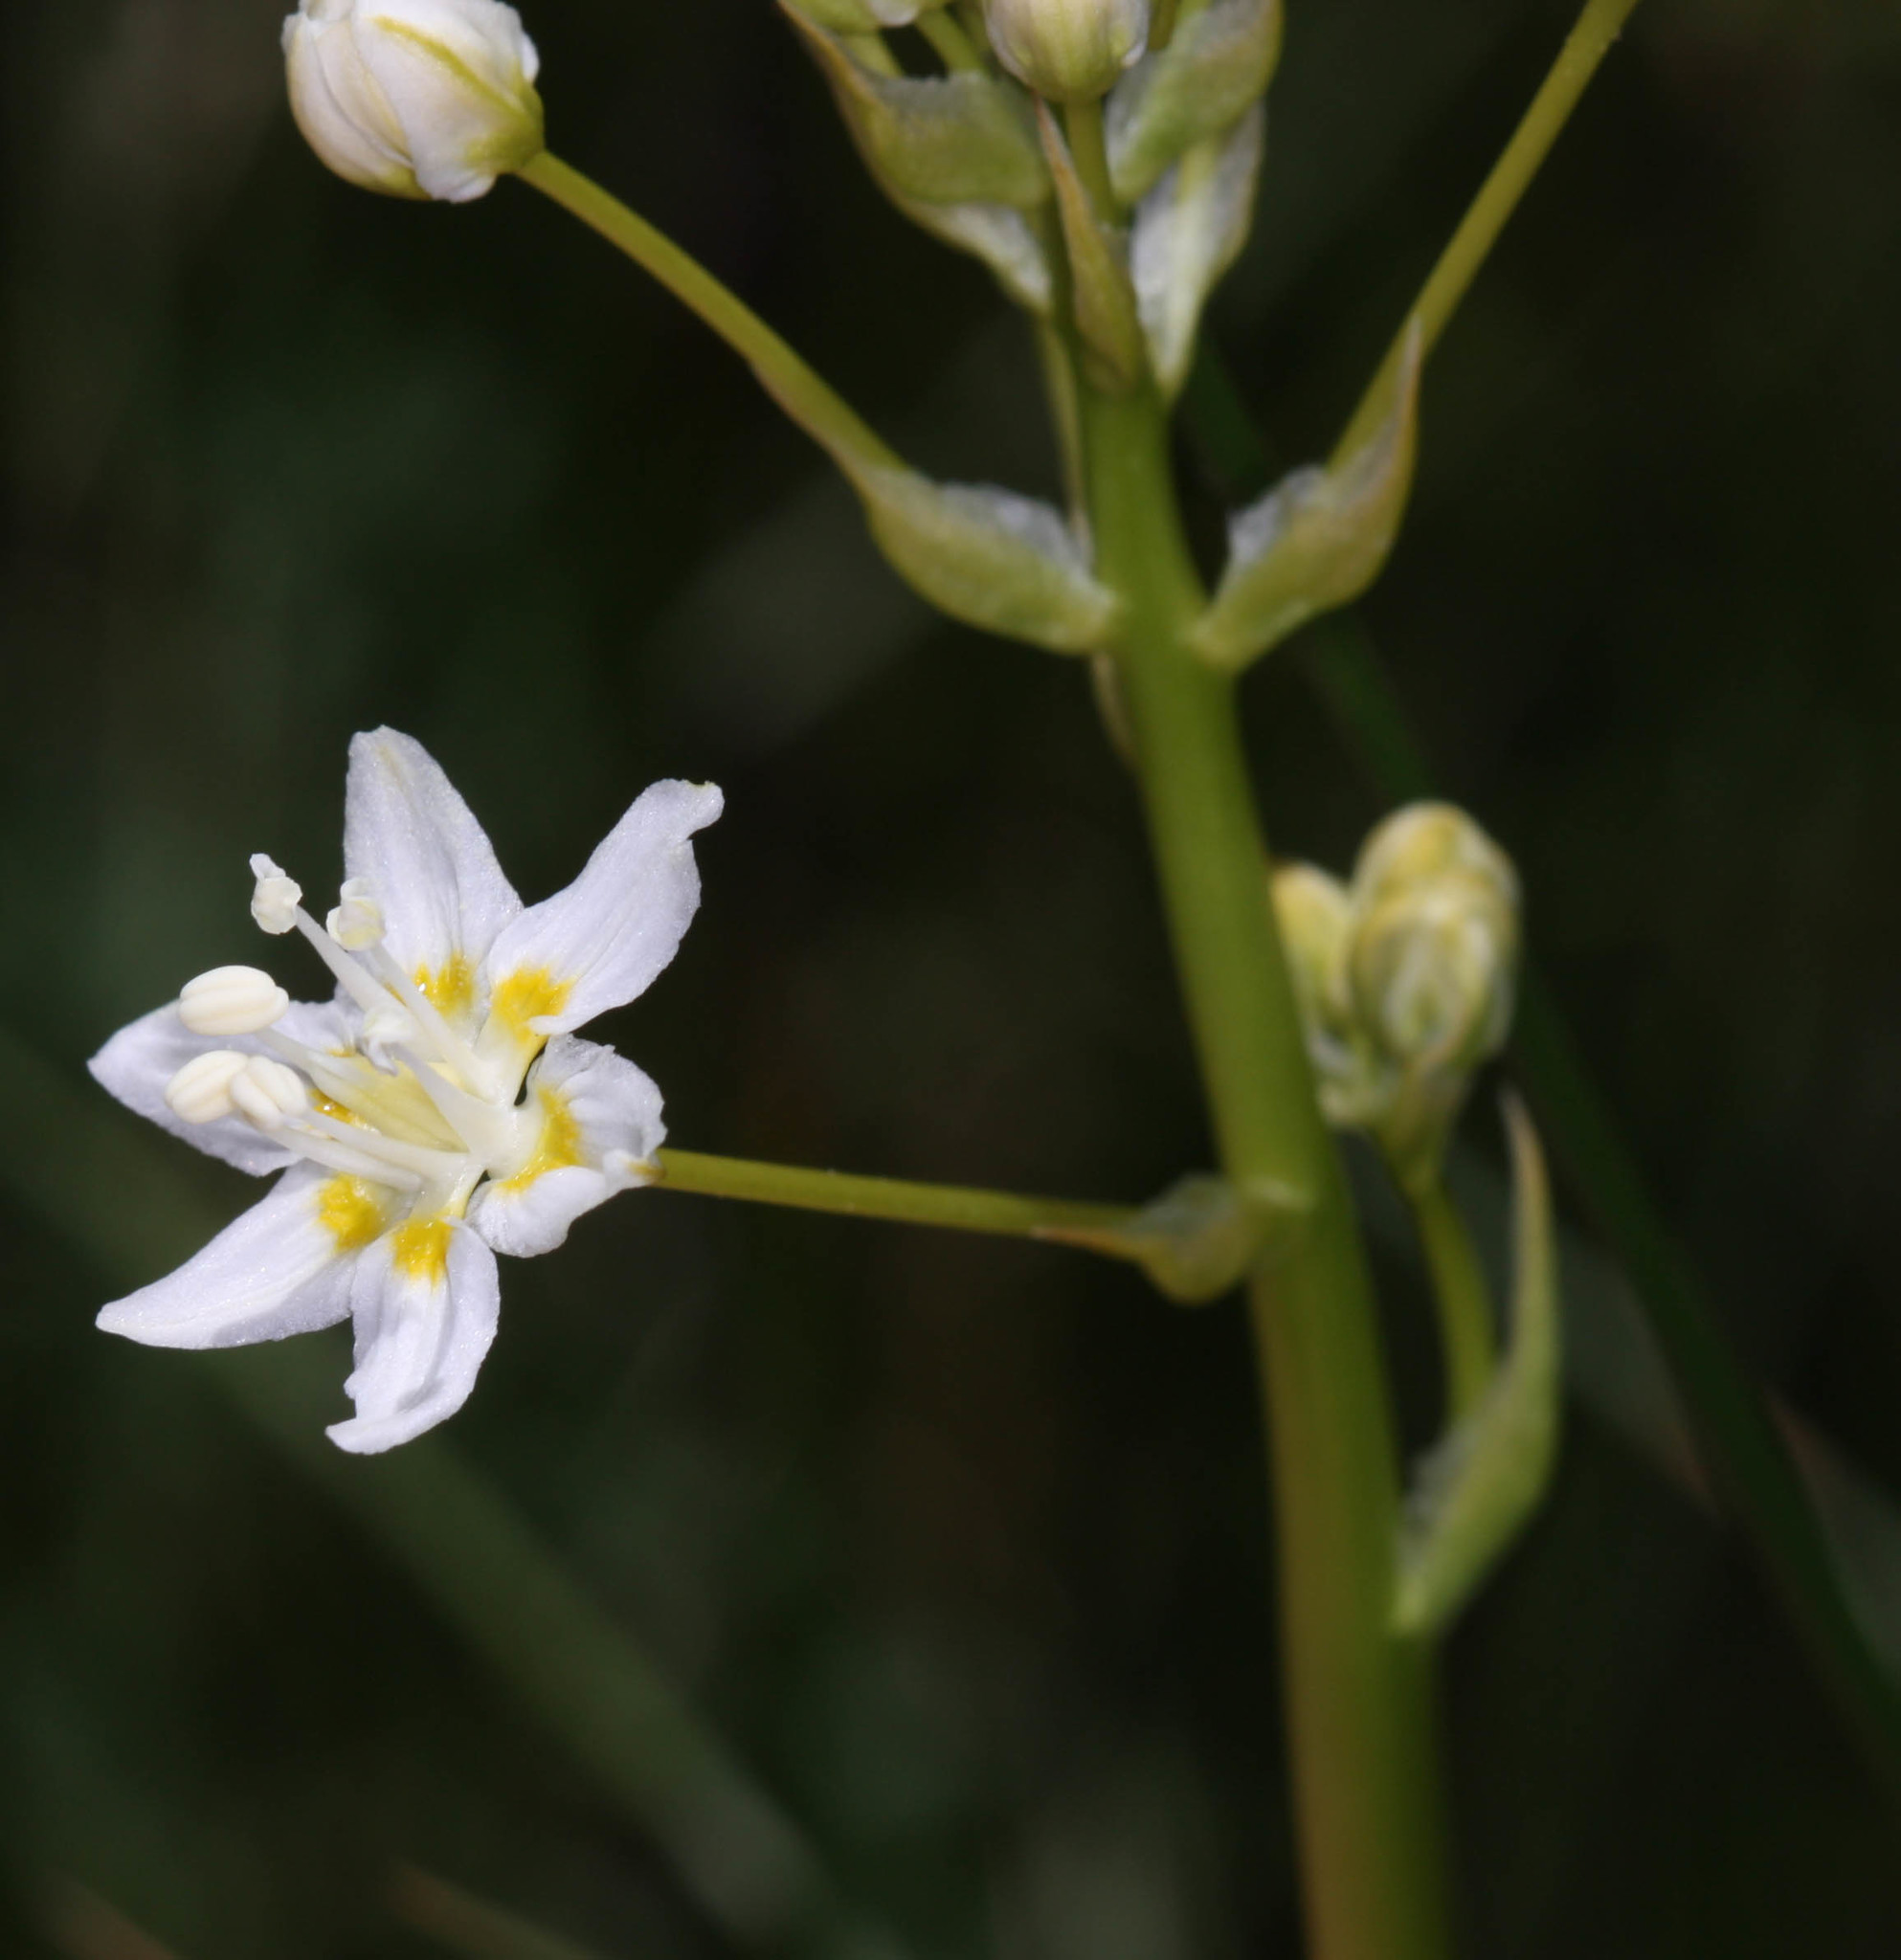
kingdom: Plantae
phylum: Tracheophyta
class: Liliopsida
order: Liliales
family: Melanthiaceae
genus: Toxicoscordion
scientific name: Toxicoscordion fontanum
